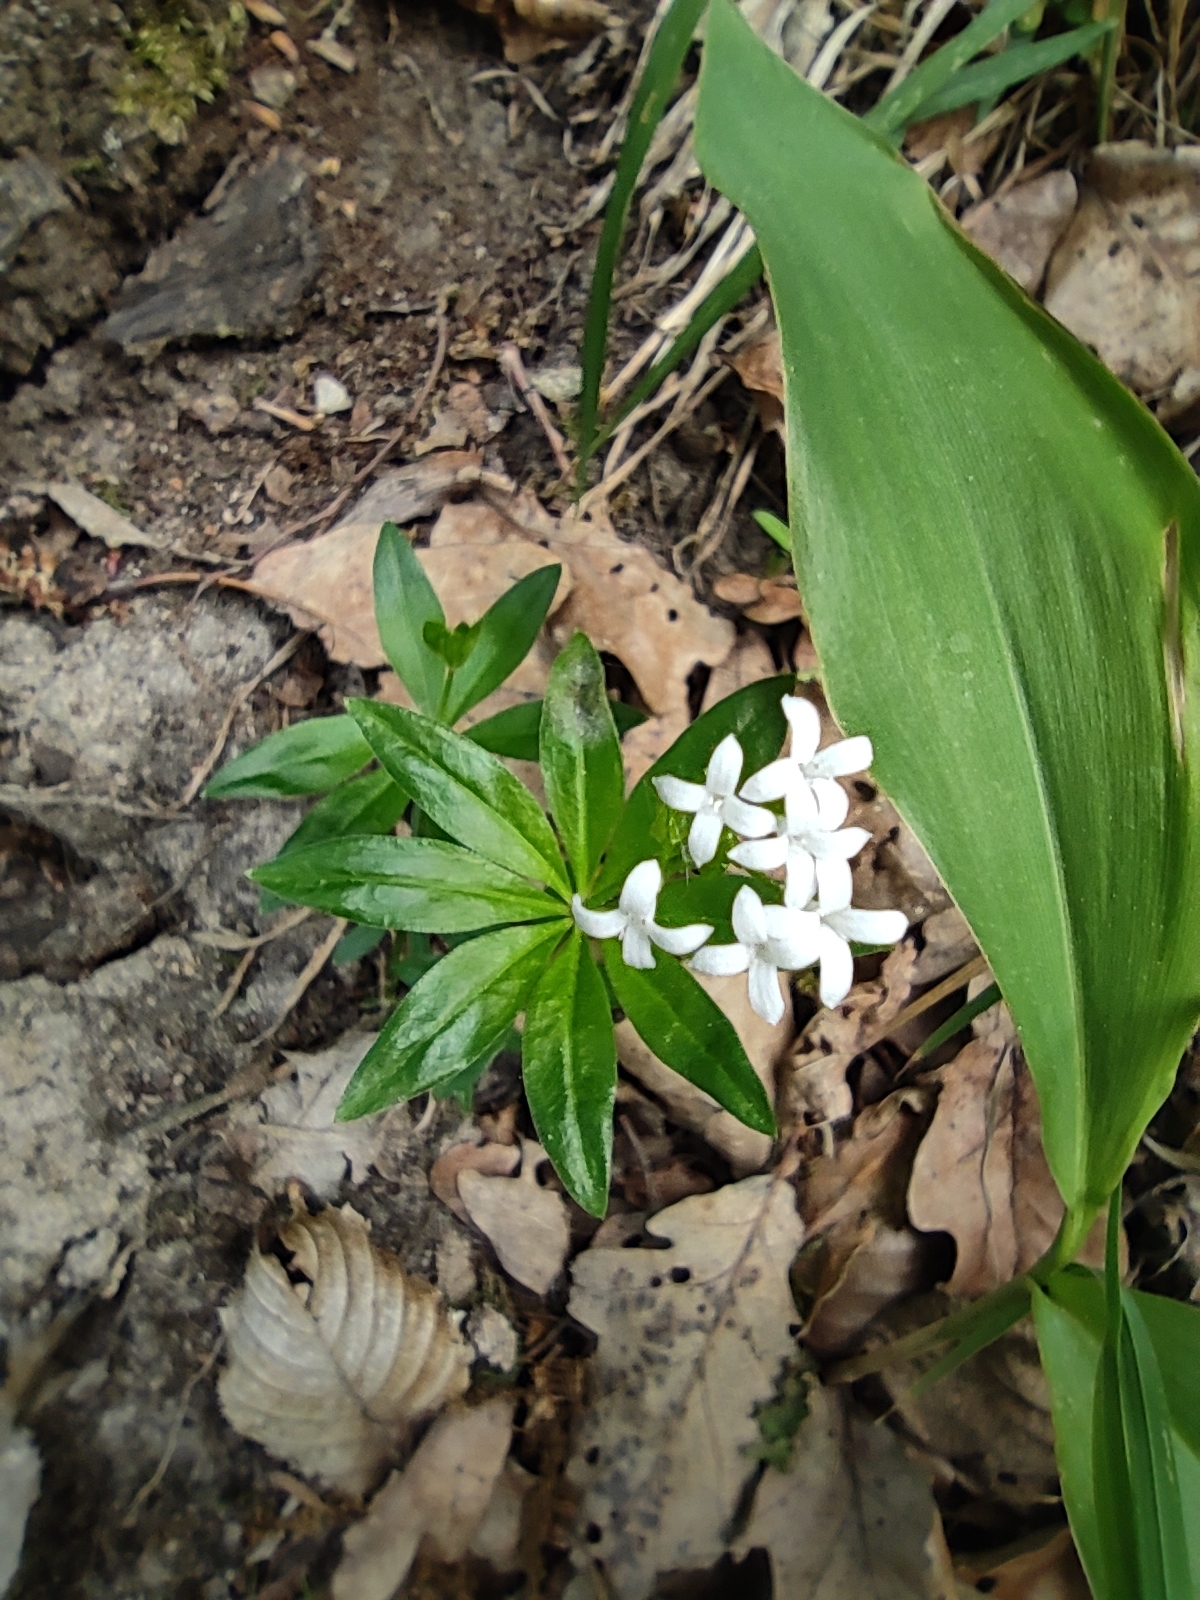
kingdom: Plantae
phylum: Tracheophyta
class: Magnoliopsida
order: Gentianales
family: Rubiaceae
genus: Galium
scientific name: Galium odoratum
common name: Sweet woodruff
